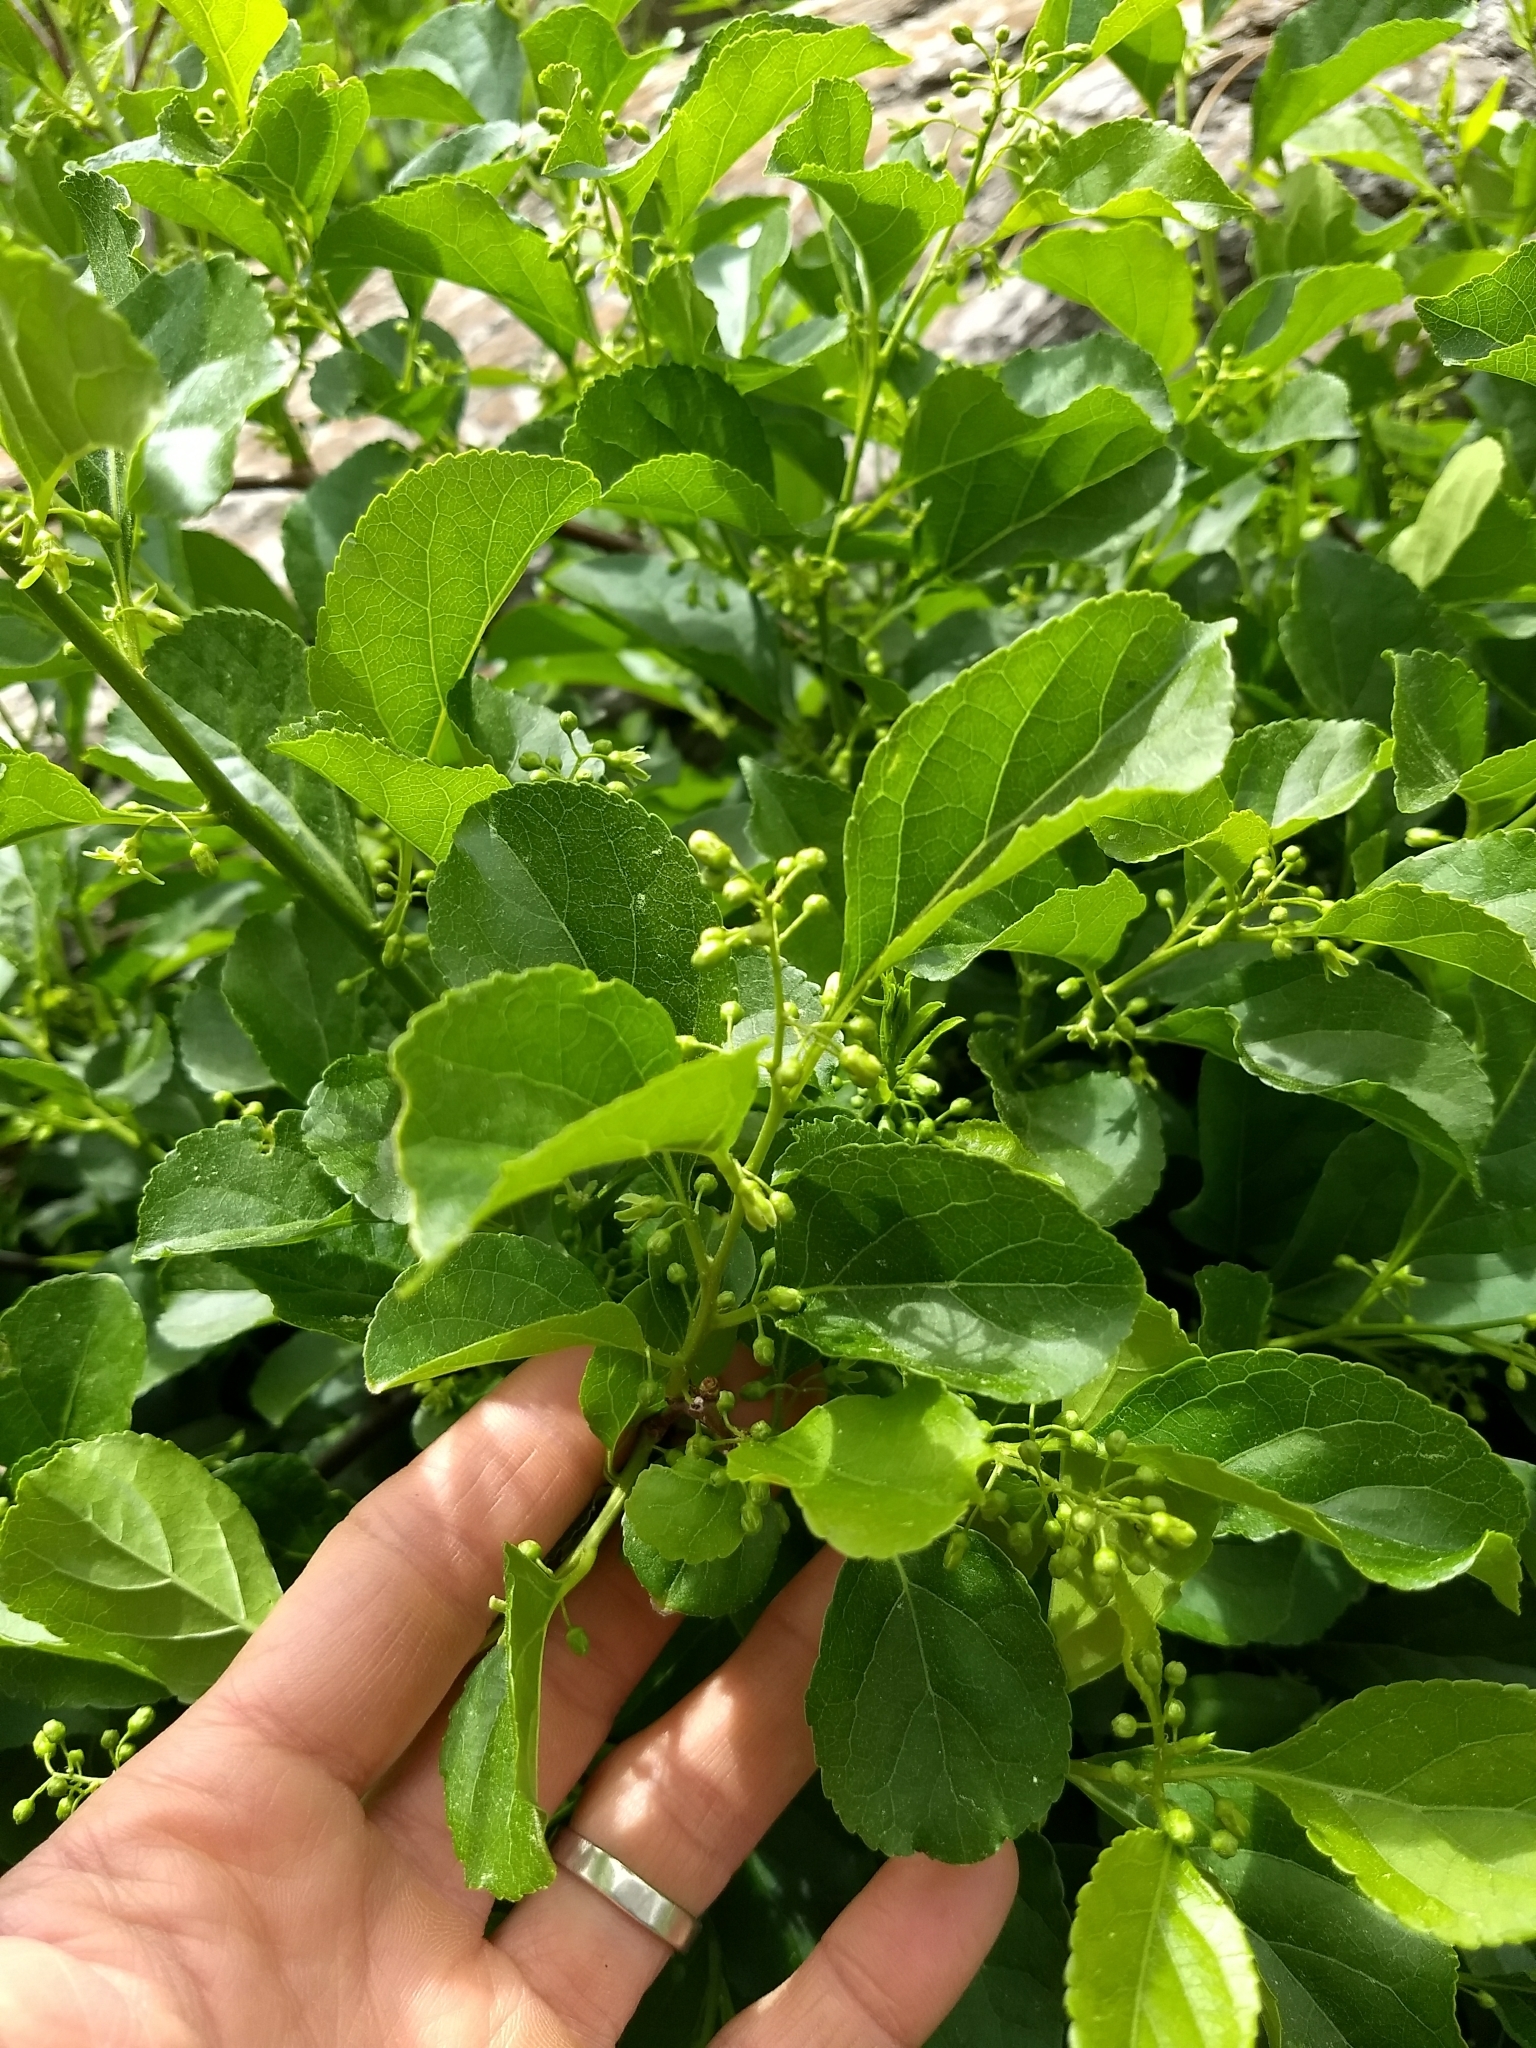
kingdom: Plantae
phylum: Tracheophyta
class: Magnoliopsida
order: Celastrales
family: Celastraceae
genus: Celastrus
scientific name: Celastrus orbiculatus
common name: Oriental bittersweet
